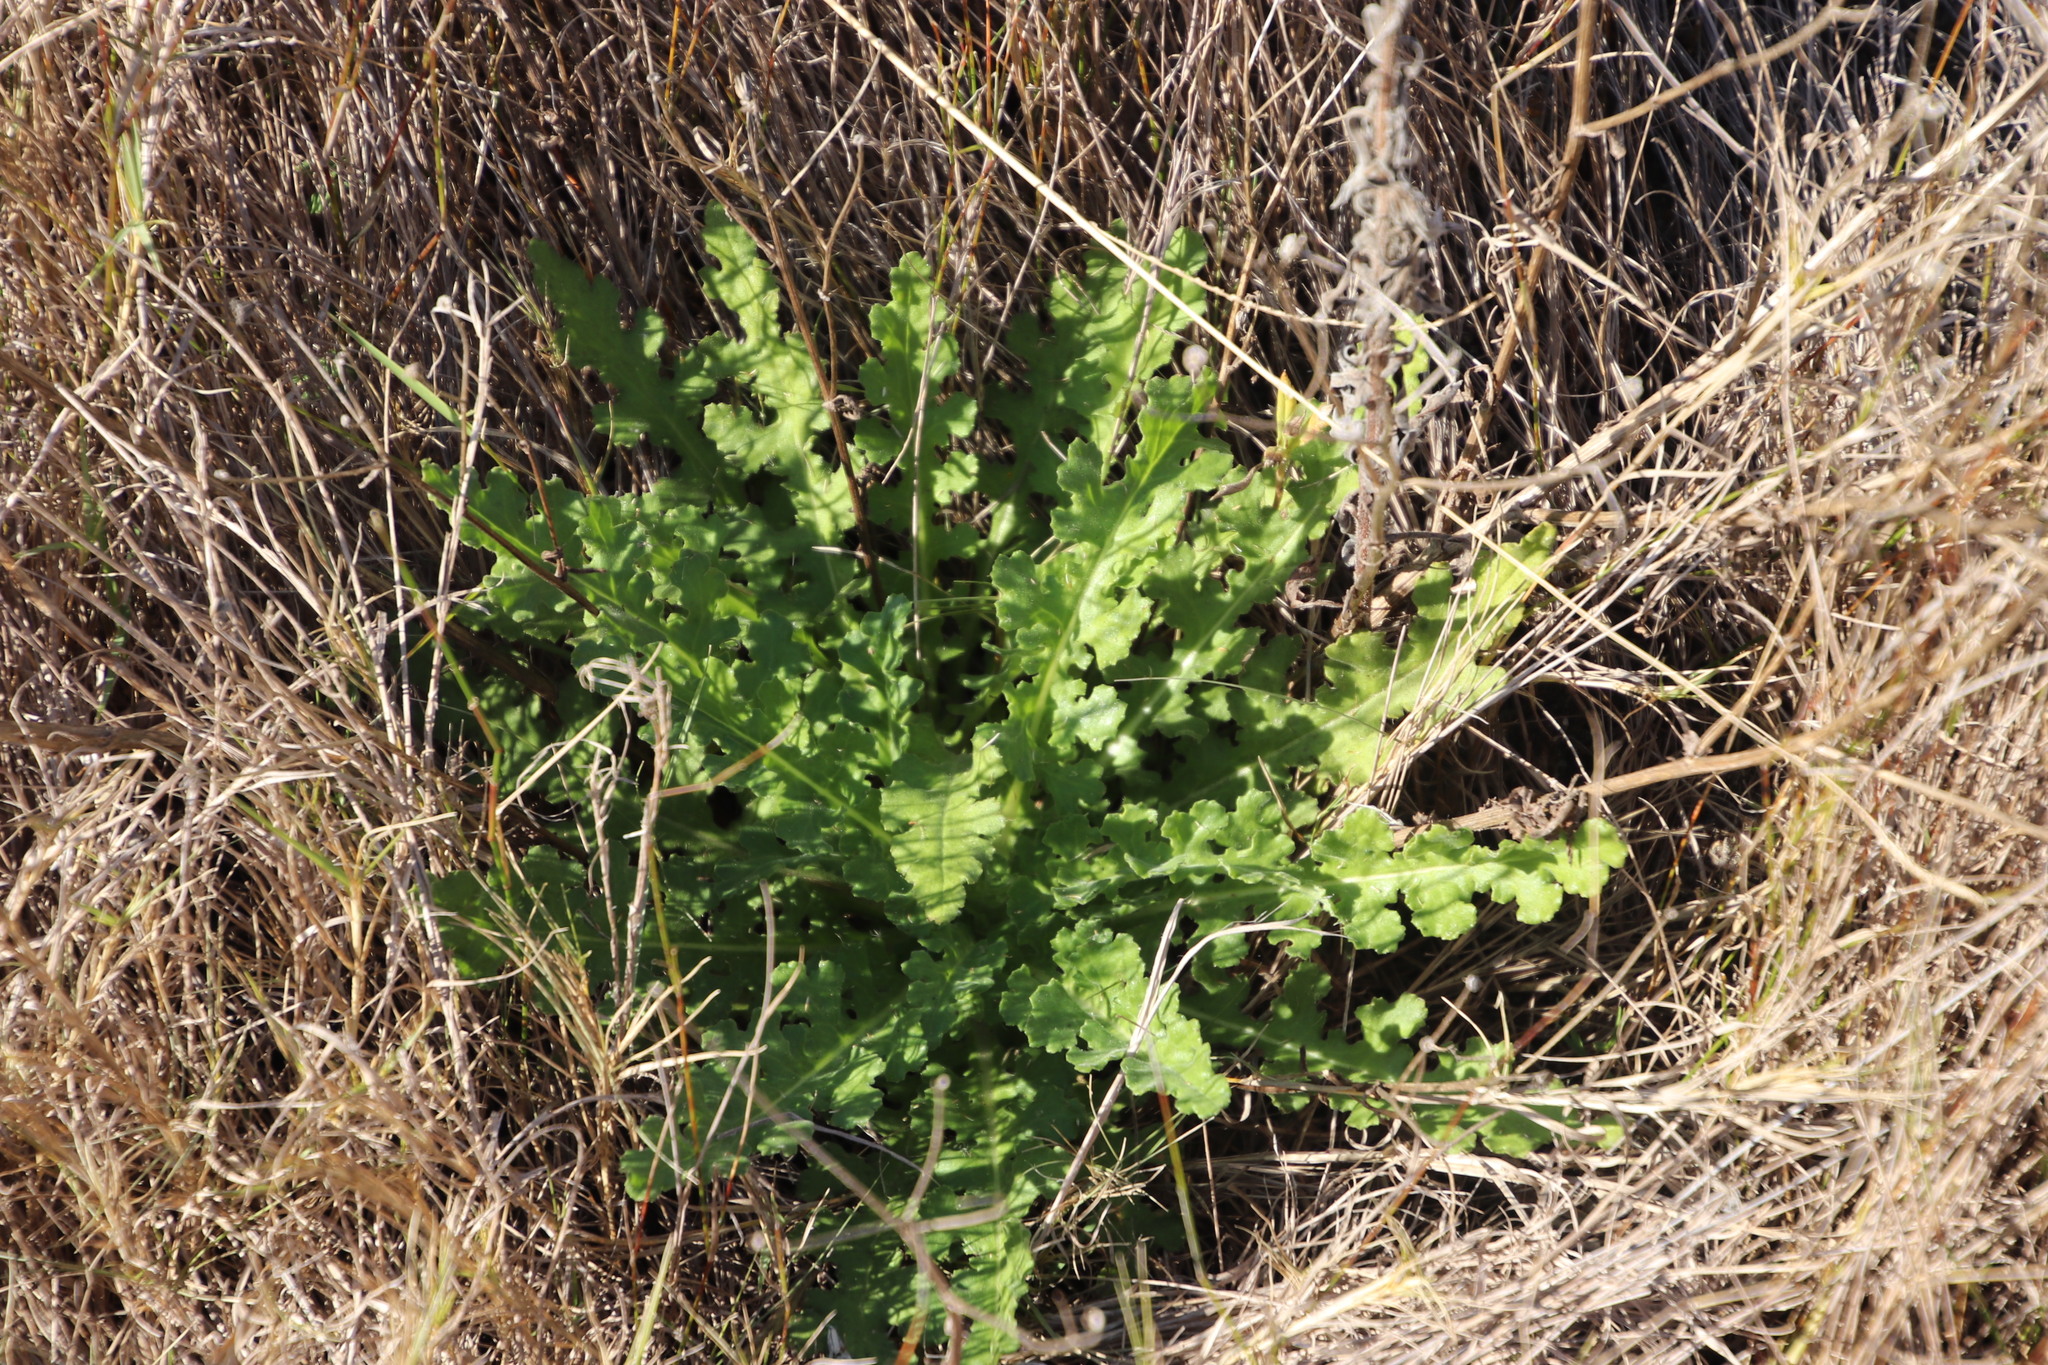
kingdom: Plantae
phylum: Tracheophyta
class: Magnoliopsida
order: Asterales
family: Asteraceae
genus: Senecio
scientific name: Senecio hastatus
